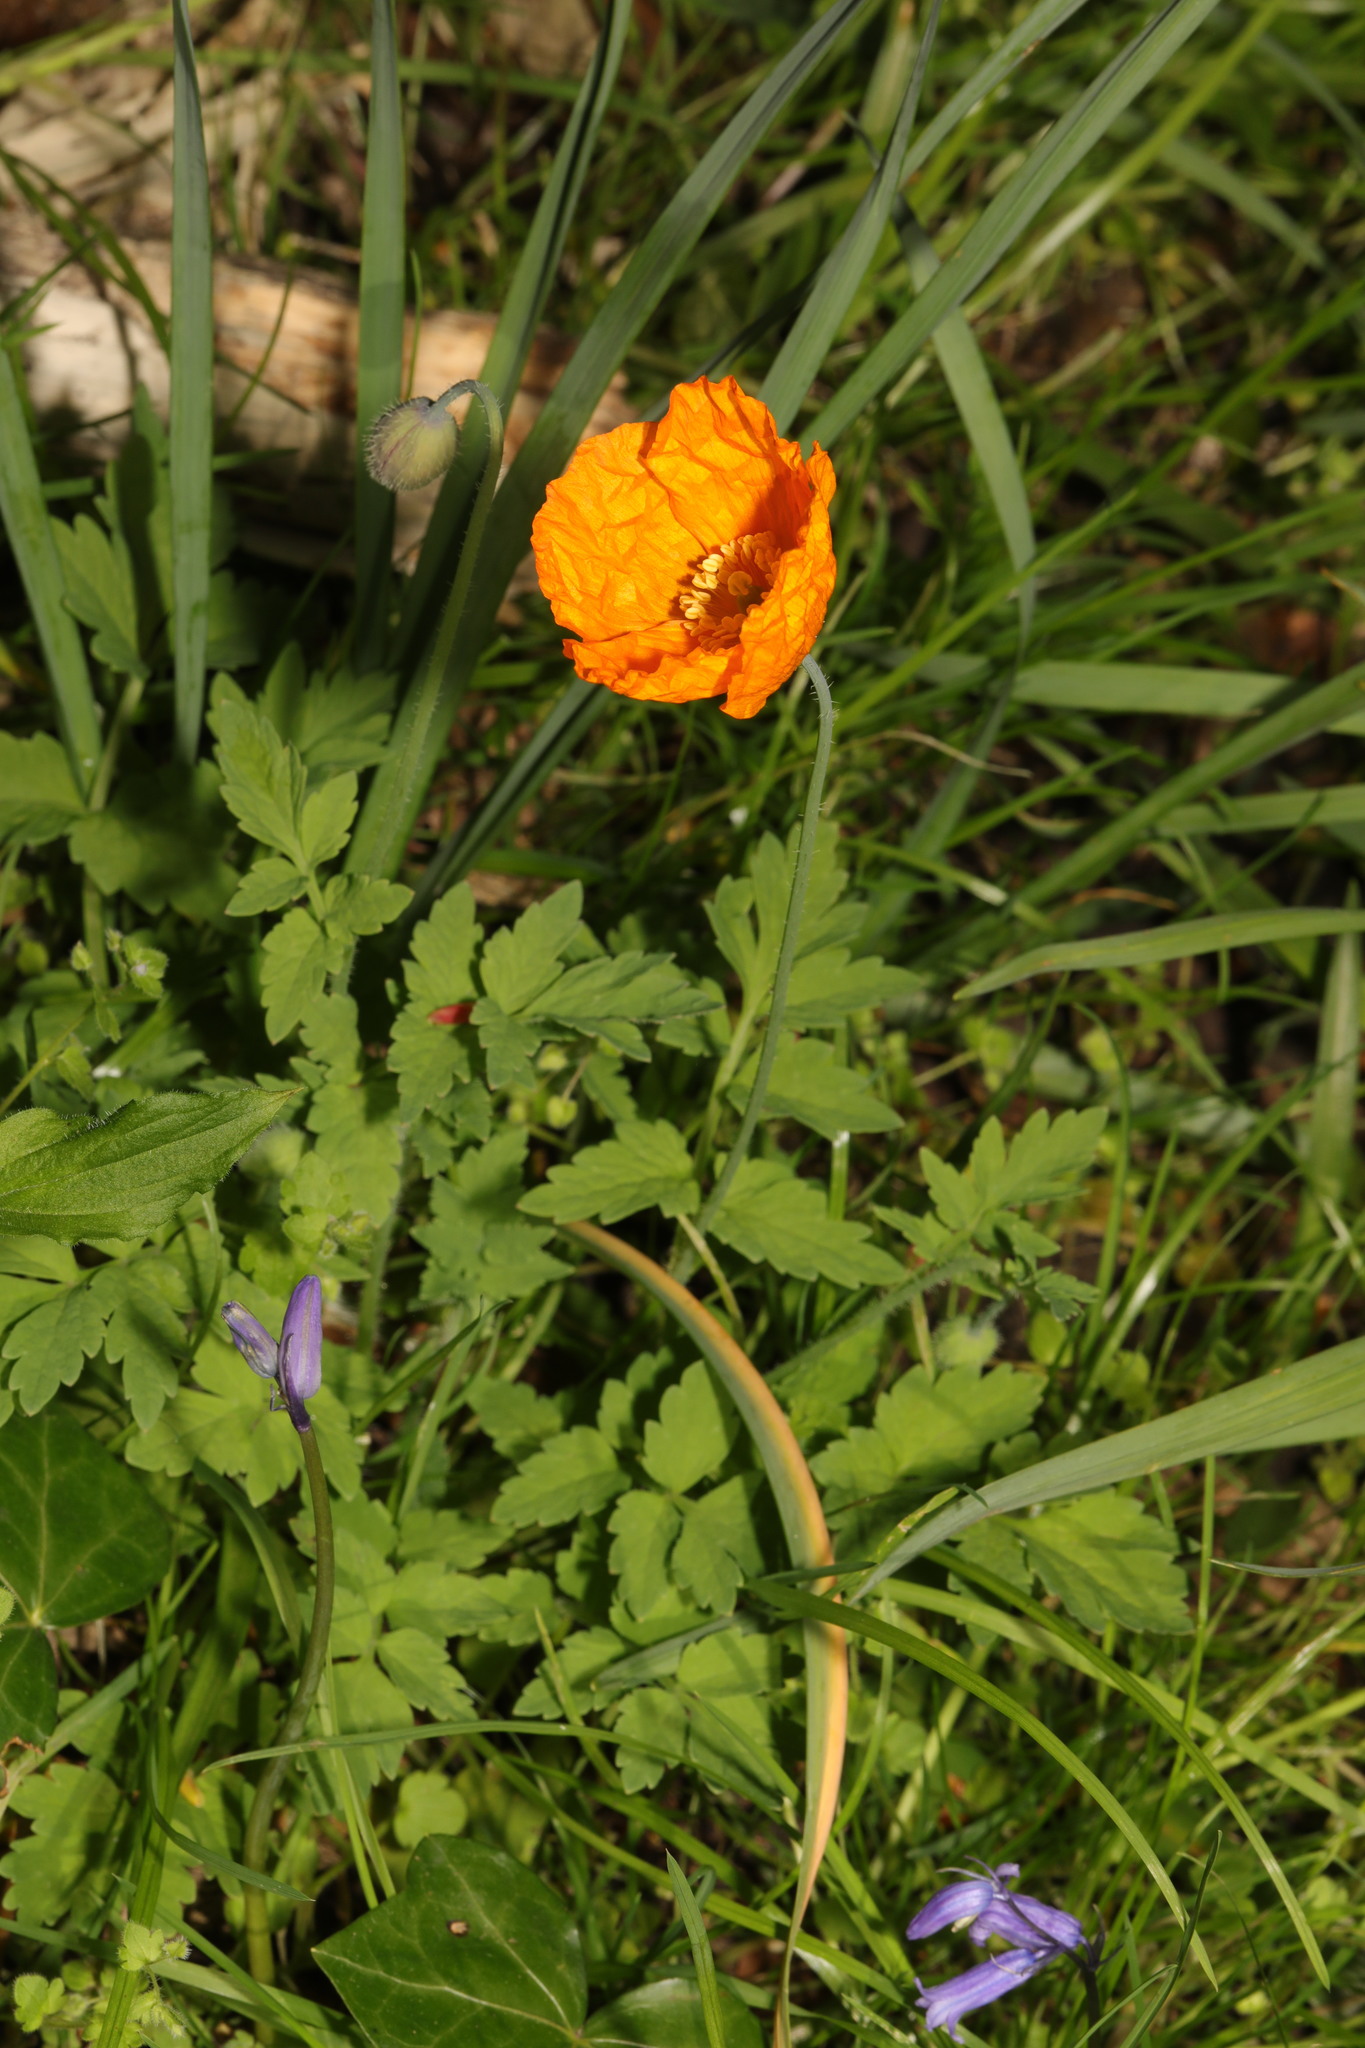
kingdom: Plantae
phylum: Tracheophyta
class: Magnoliopsida
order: Ranunculales
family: Papaveraceae
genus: Papaver
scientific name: Papaver cambricum
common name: Poppy
